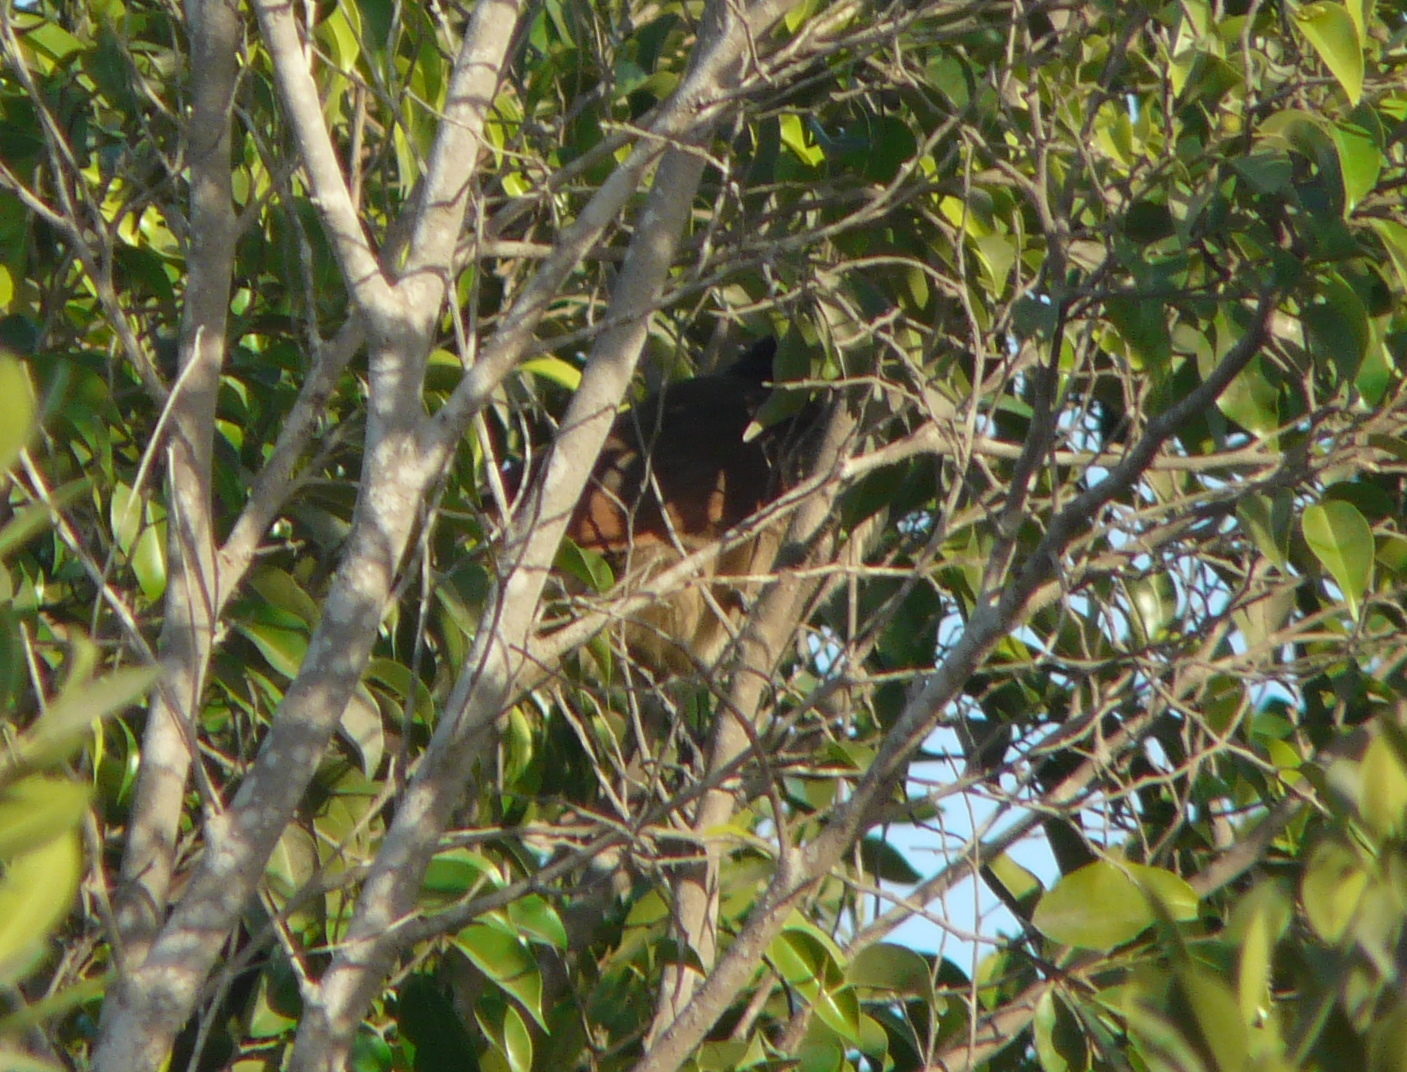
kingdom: Animalia
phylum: Chordata
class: Aves
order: Cuculiformes
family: Cuculidae
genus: Centropus
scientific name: Centropus senegalensis
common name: Senegal coucal
